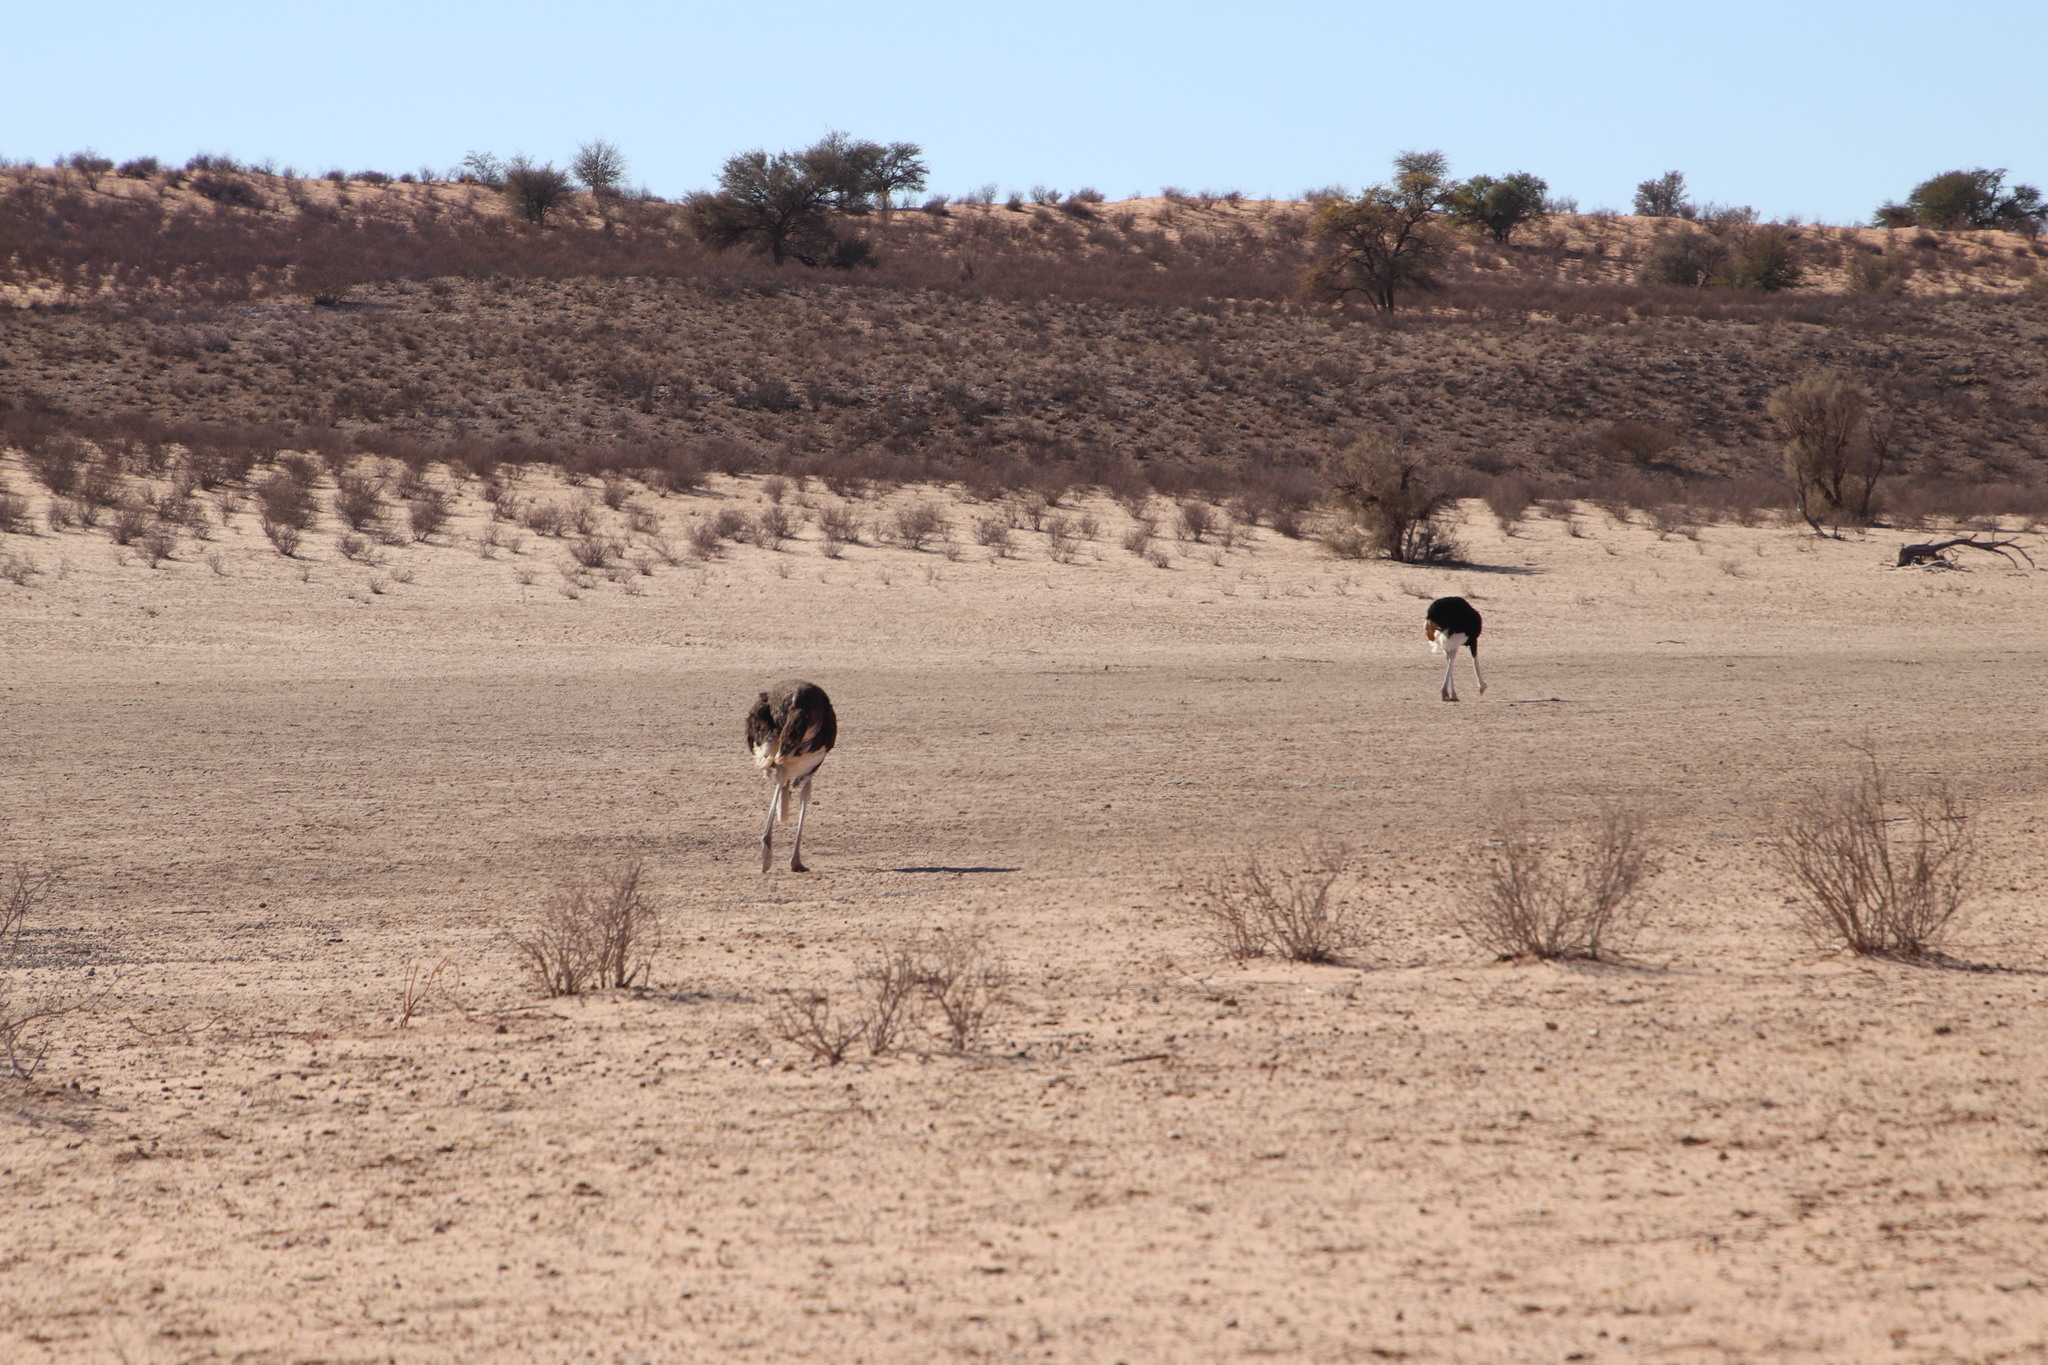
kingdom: Animalia
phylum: Chordata
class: Aves
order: Struthioniformes
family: Struthionidae
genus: Struthio
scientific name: Struthio camelus
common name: Common ostrich
